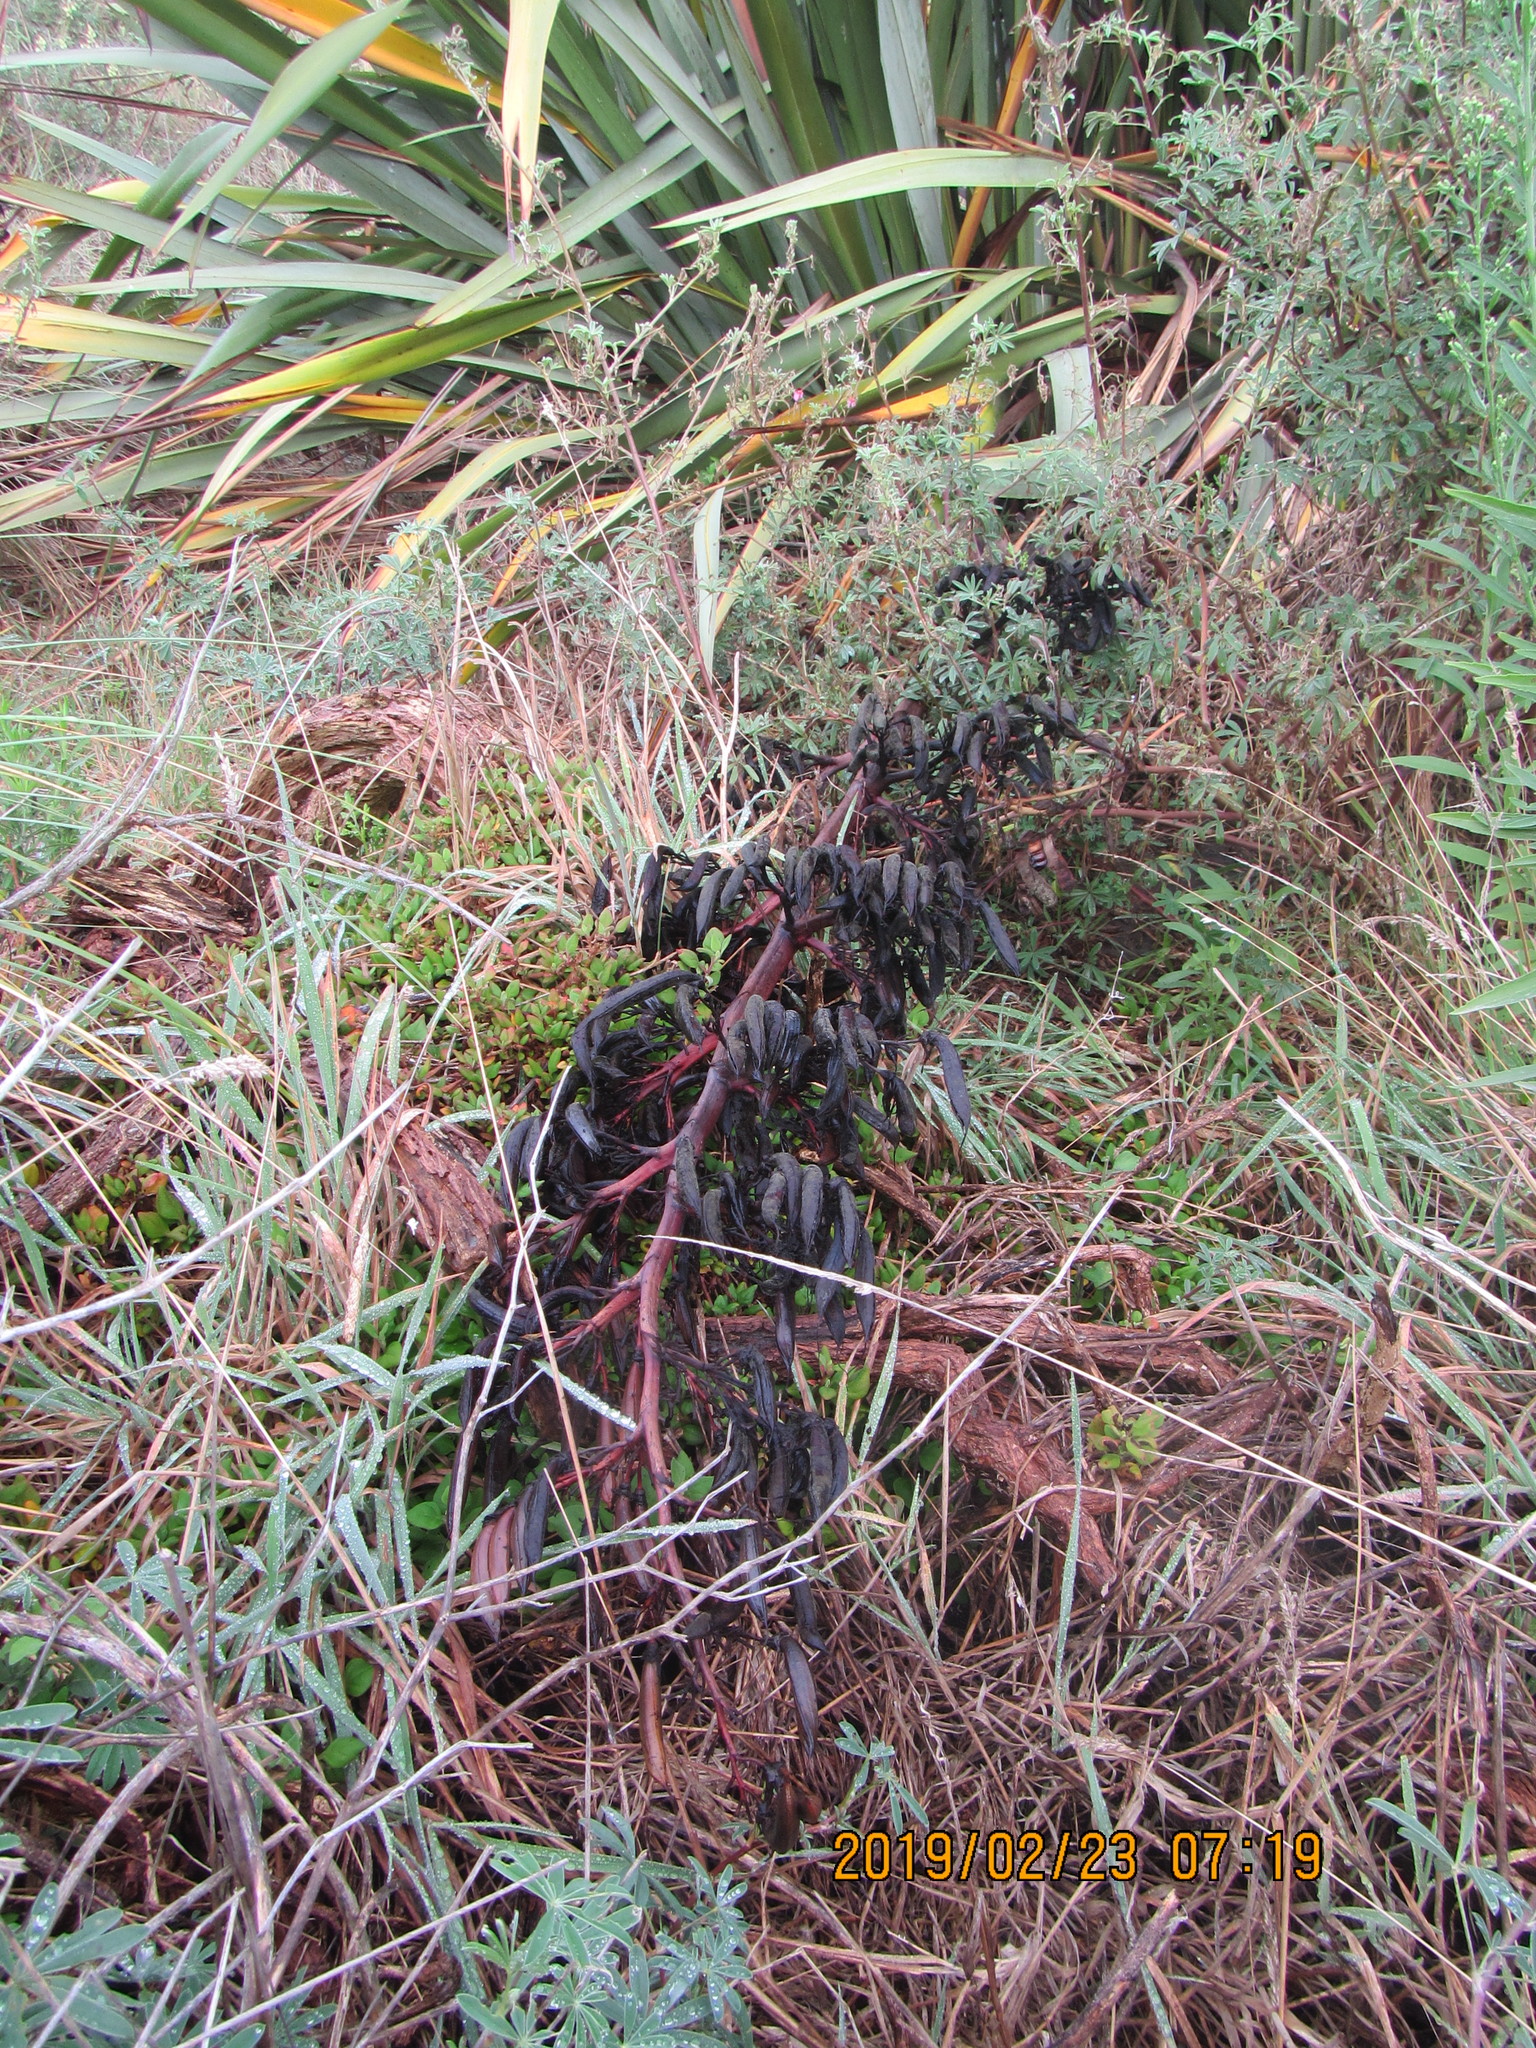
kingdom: Plantae
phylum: Tracheophyta
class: Liliopsida
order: Asparagales
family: Asphodelaceae
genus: Phormium
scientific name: Phormium tenax
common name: New zealand flax
